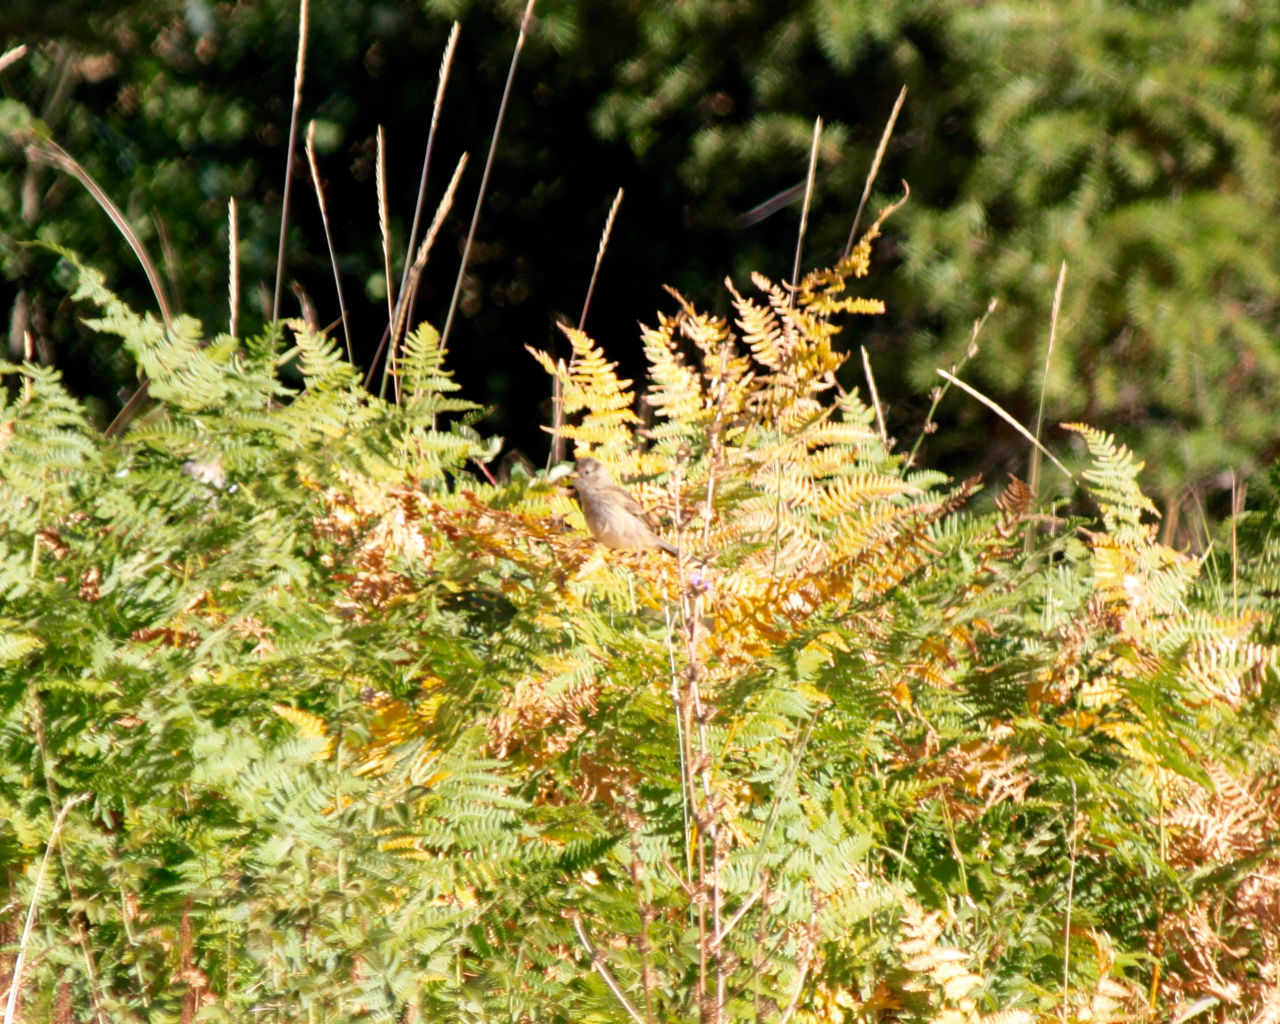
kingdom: Animalia
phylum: Chordata
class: Aves
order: Passeriformes
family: Passerellidae
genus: Zonotrichia
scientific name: Zonotrichia leucophrys
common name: White-crowned sparrow
